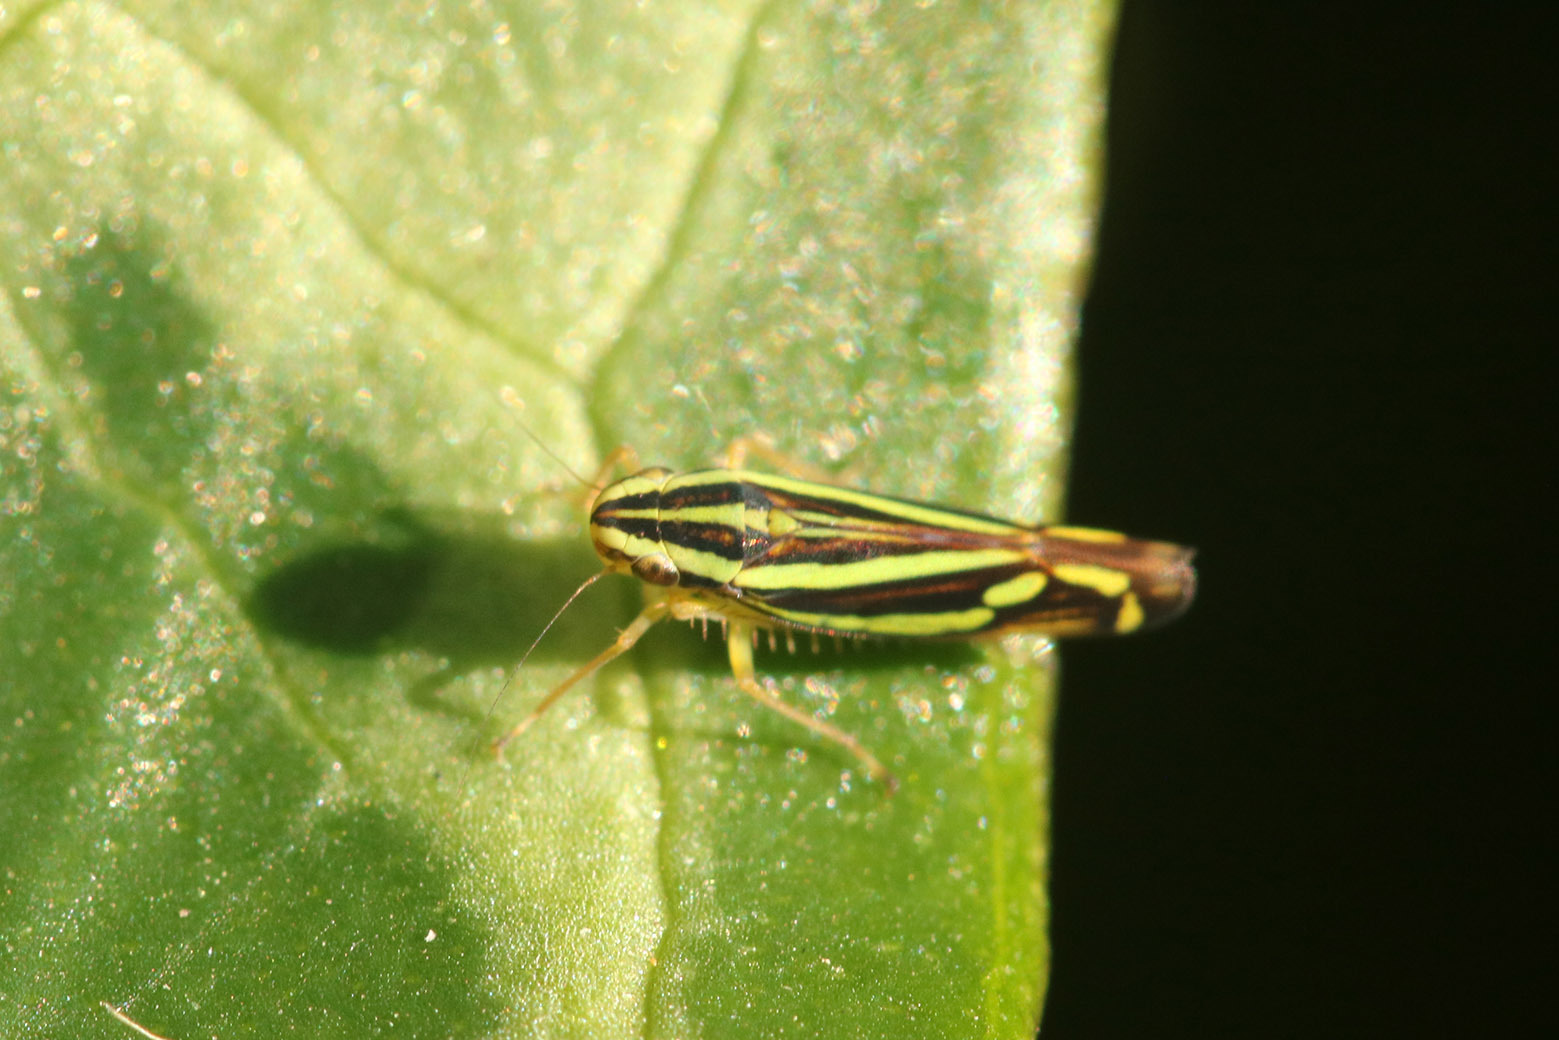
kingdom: Animalia
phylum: Arthropoda
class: Insecta
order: Hemiptera
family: Cicadellidae
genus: Sibovia
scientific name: Sibovia sagata
